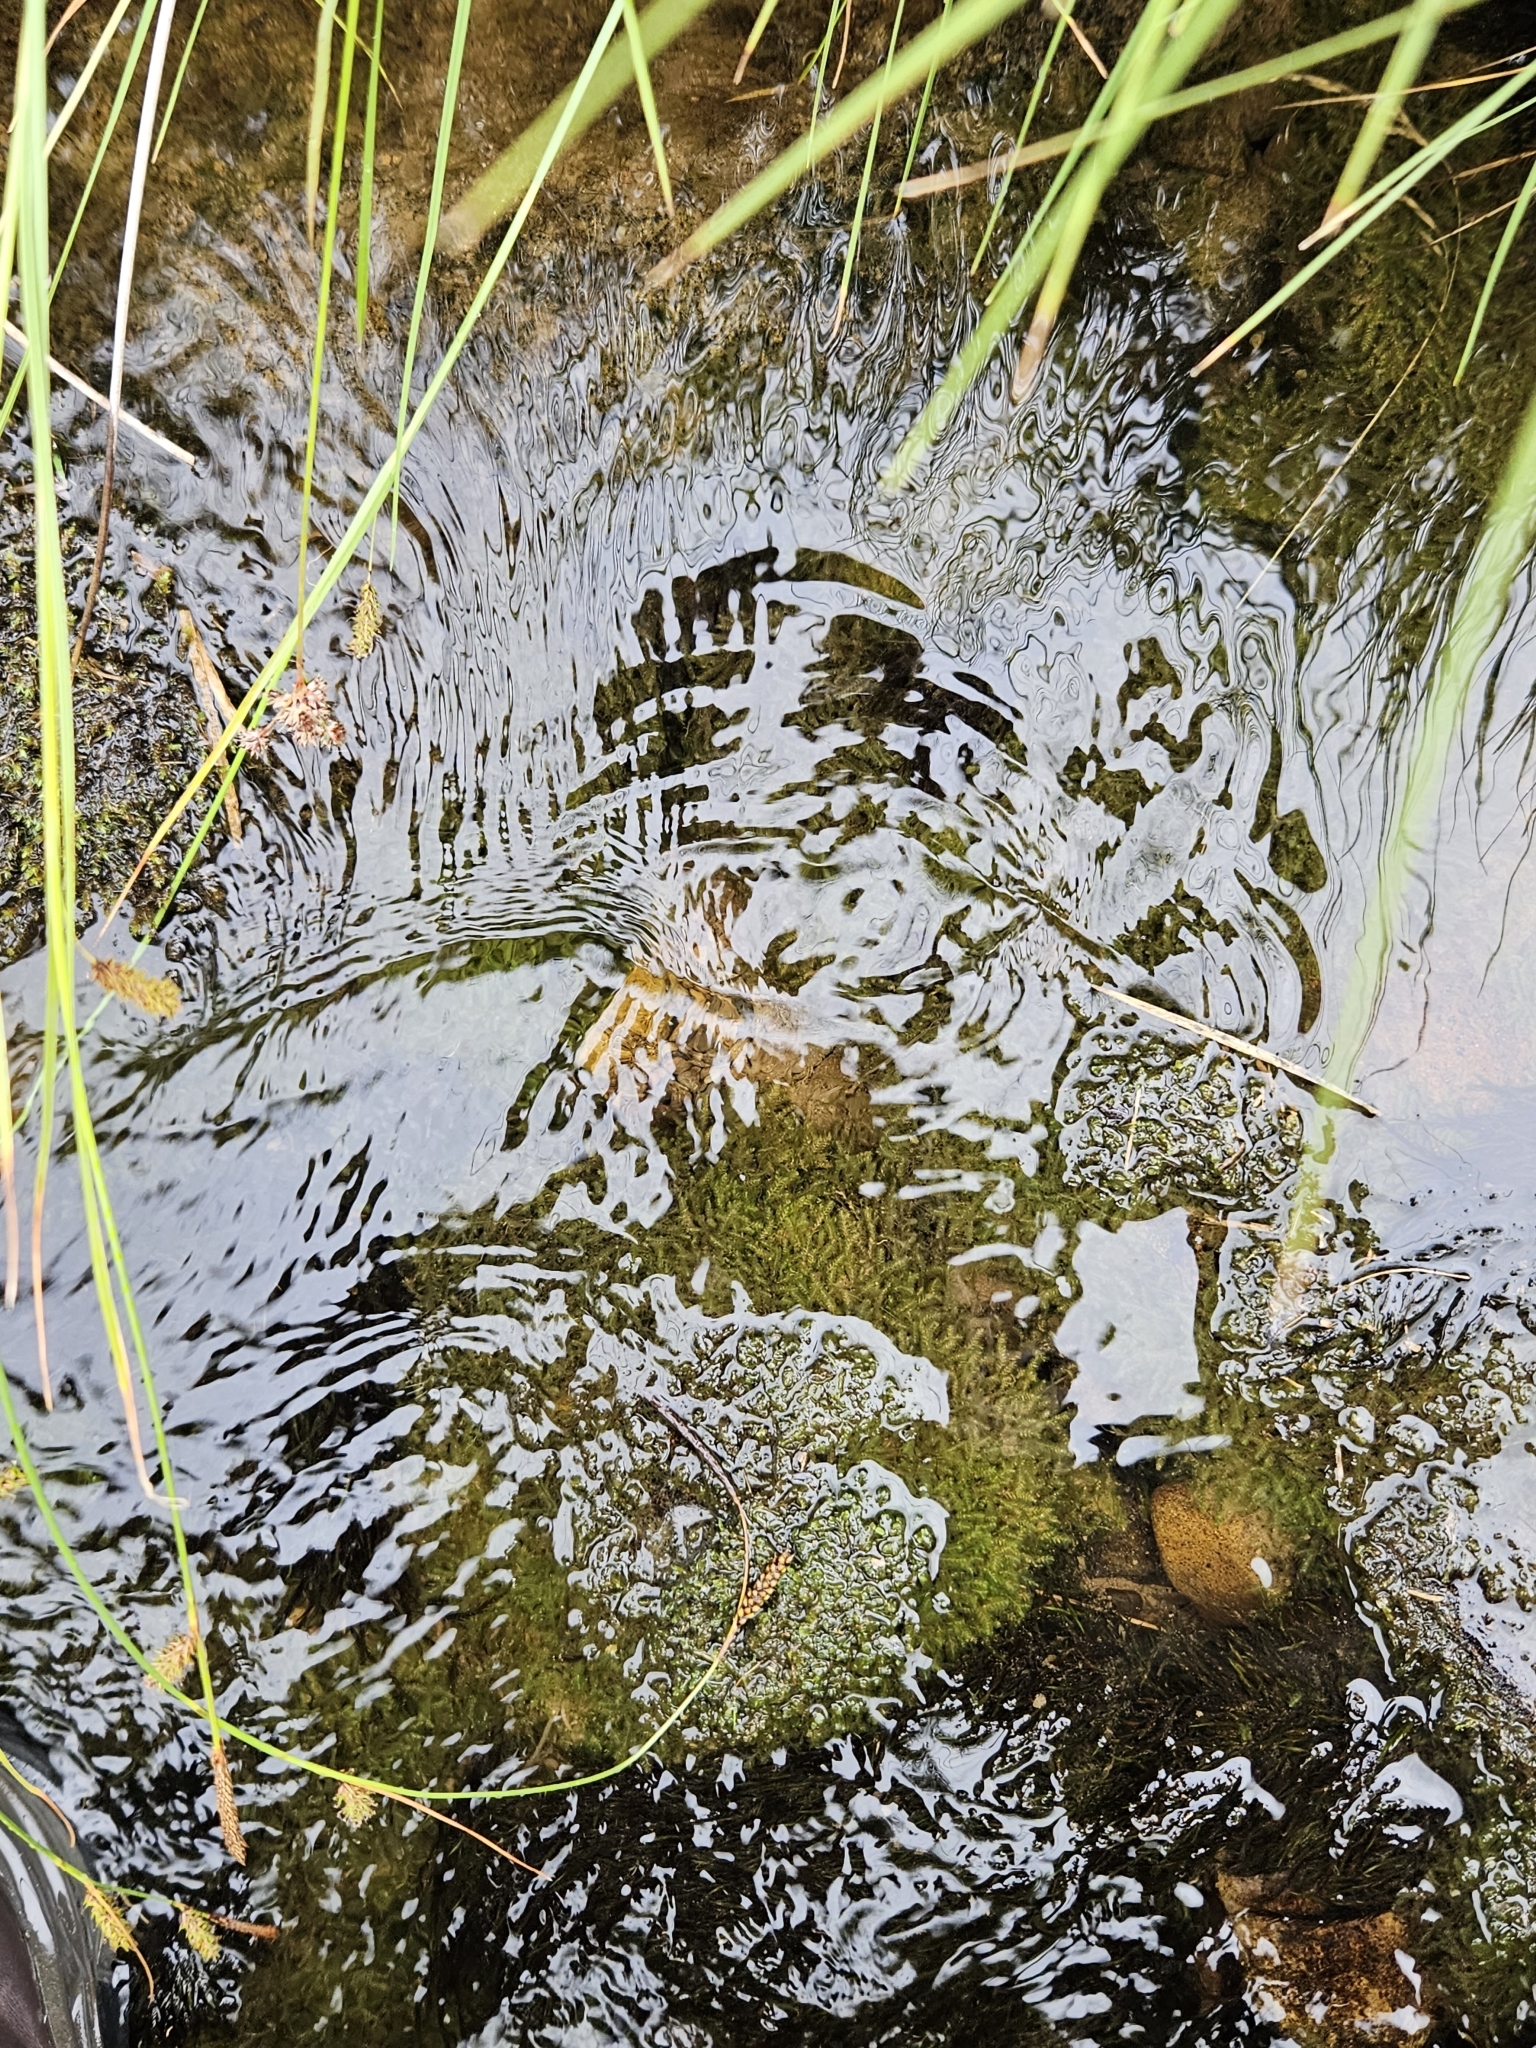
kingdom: Plantae
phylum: Marchantiophyta
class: Jungermanniopsida
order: Jungermanniales
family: Lophocoleaceae
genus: Chiloscyphus
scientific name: Chiloscyphus polyanthos
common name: Square-leaved crestwort
